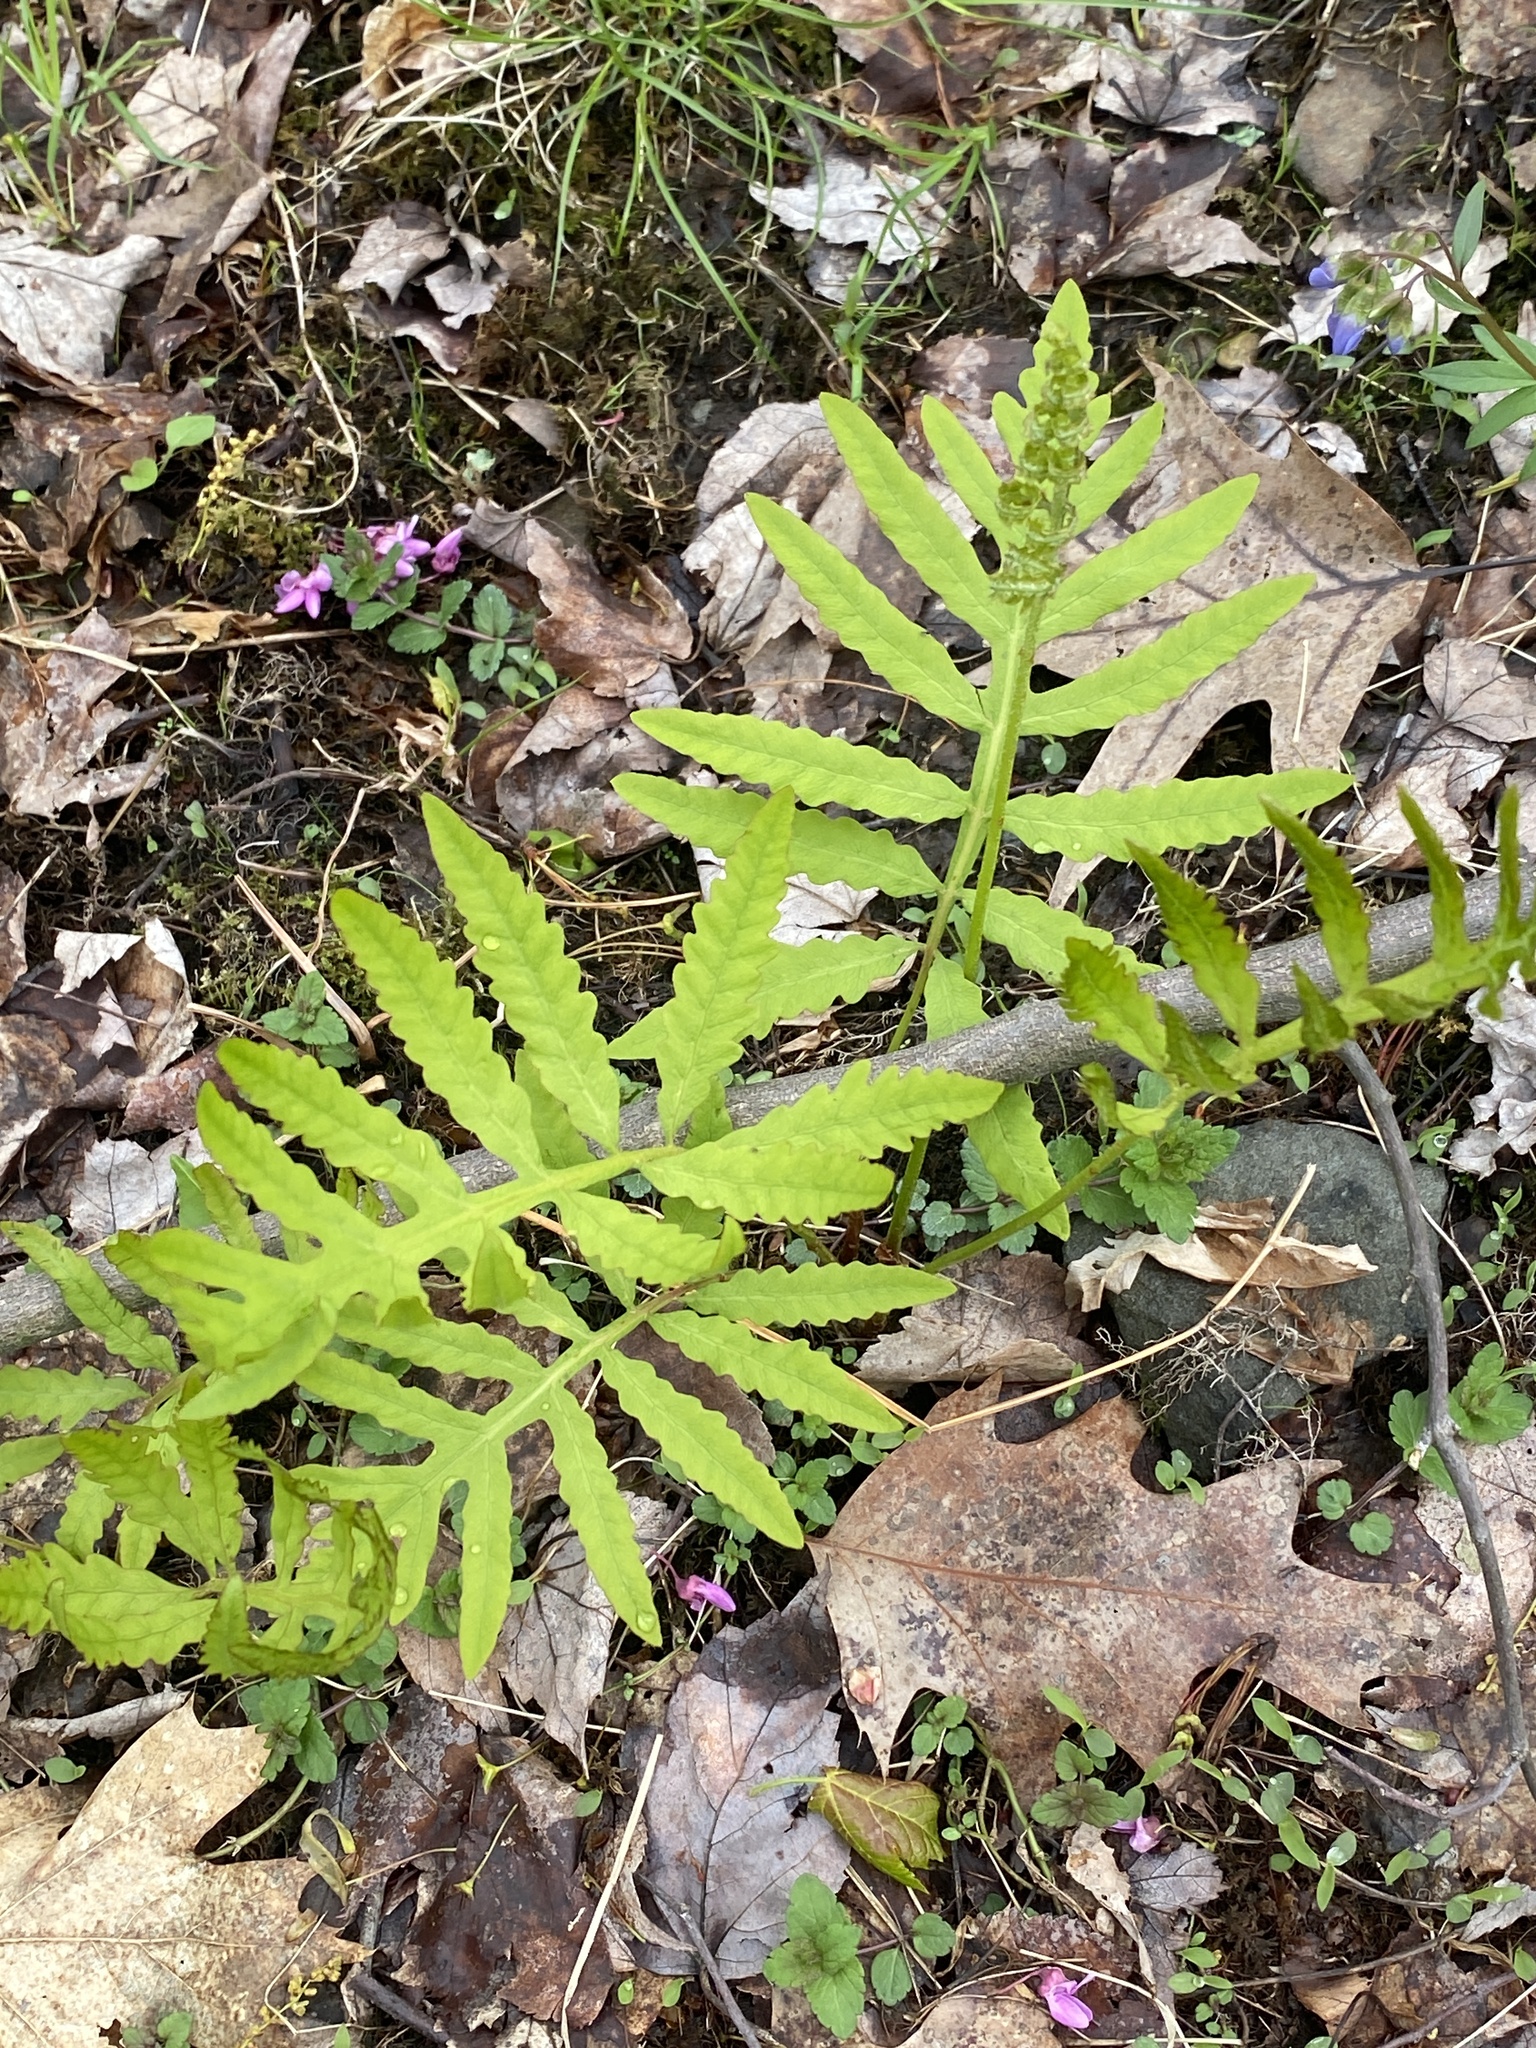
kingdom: Plantae
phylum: Tracheophyta
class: Polypodiopsida
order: Polypodiales
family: Onocleaceae
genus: Onoclea
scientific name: Onoclea sensibilis
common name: Sensitive fern
